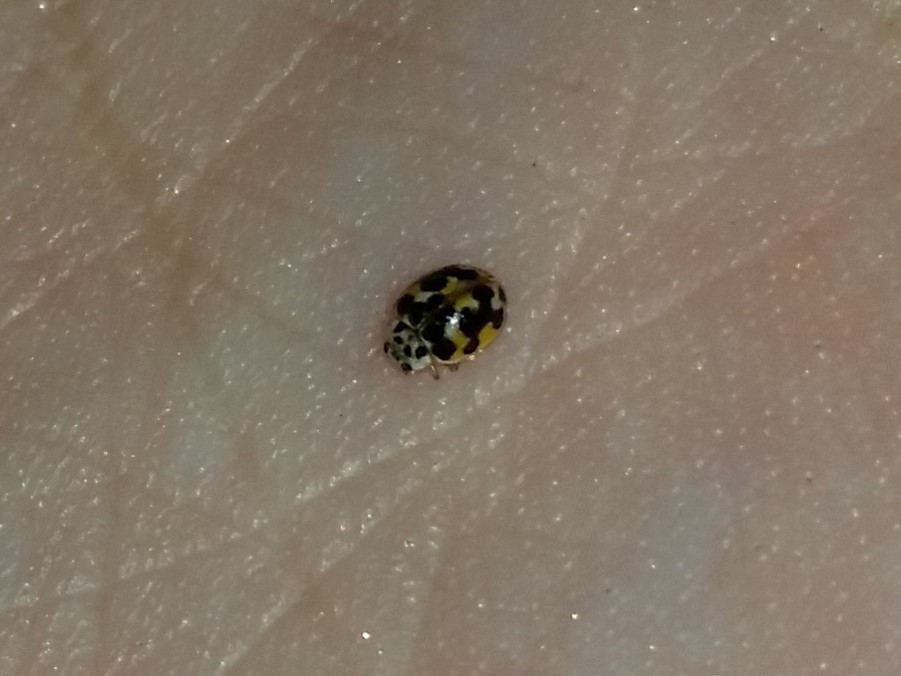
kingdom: Animalia
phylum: Arthropoda
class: Insecta
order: Coleoptera
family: Coccinellidae
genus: Psyllobora
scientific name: Psyllobora vigintimaculata
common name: Ladybird beetle
